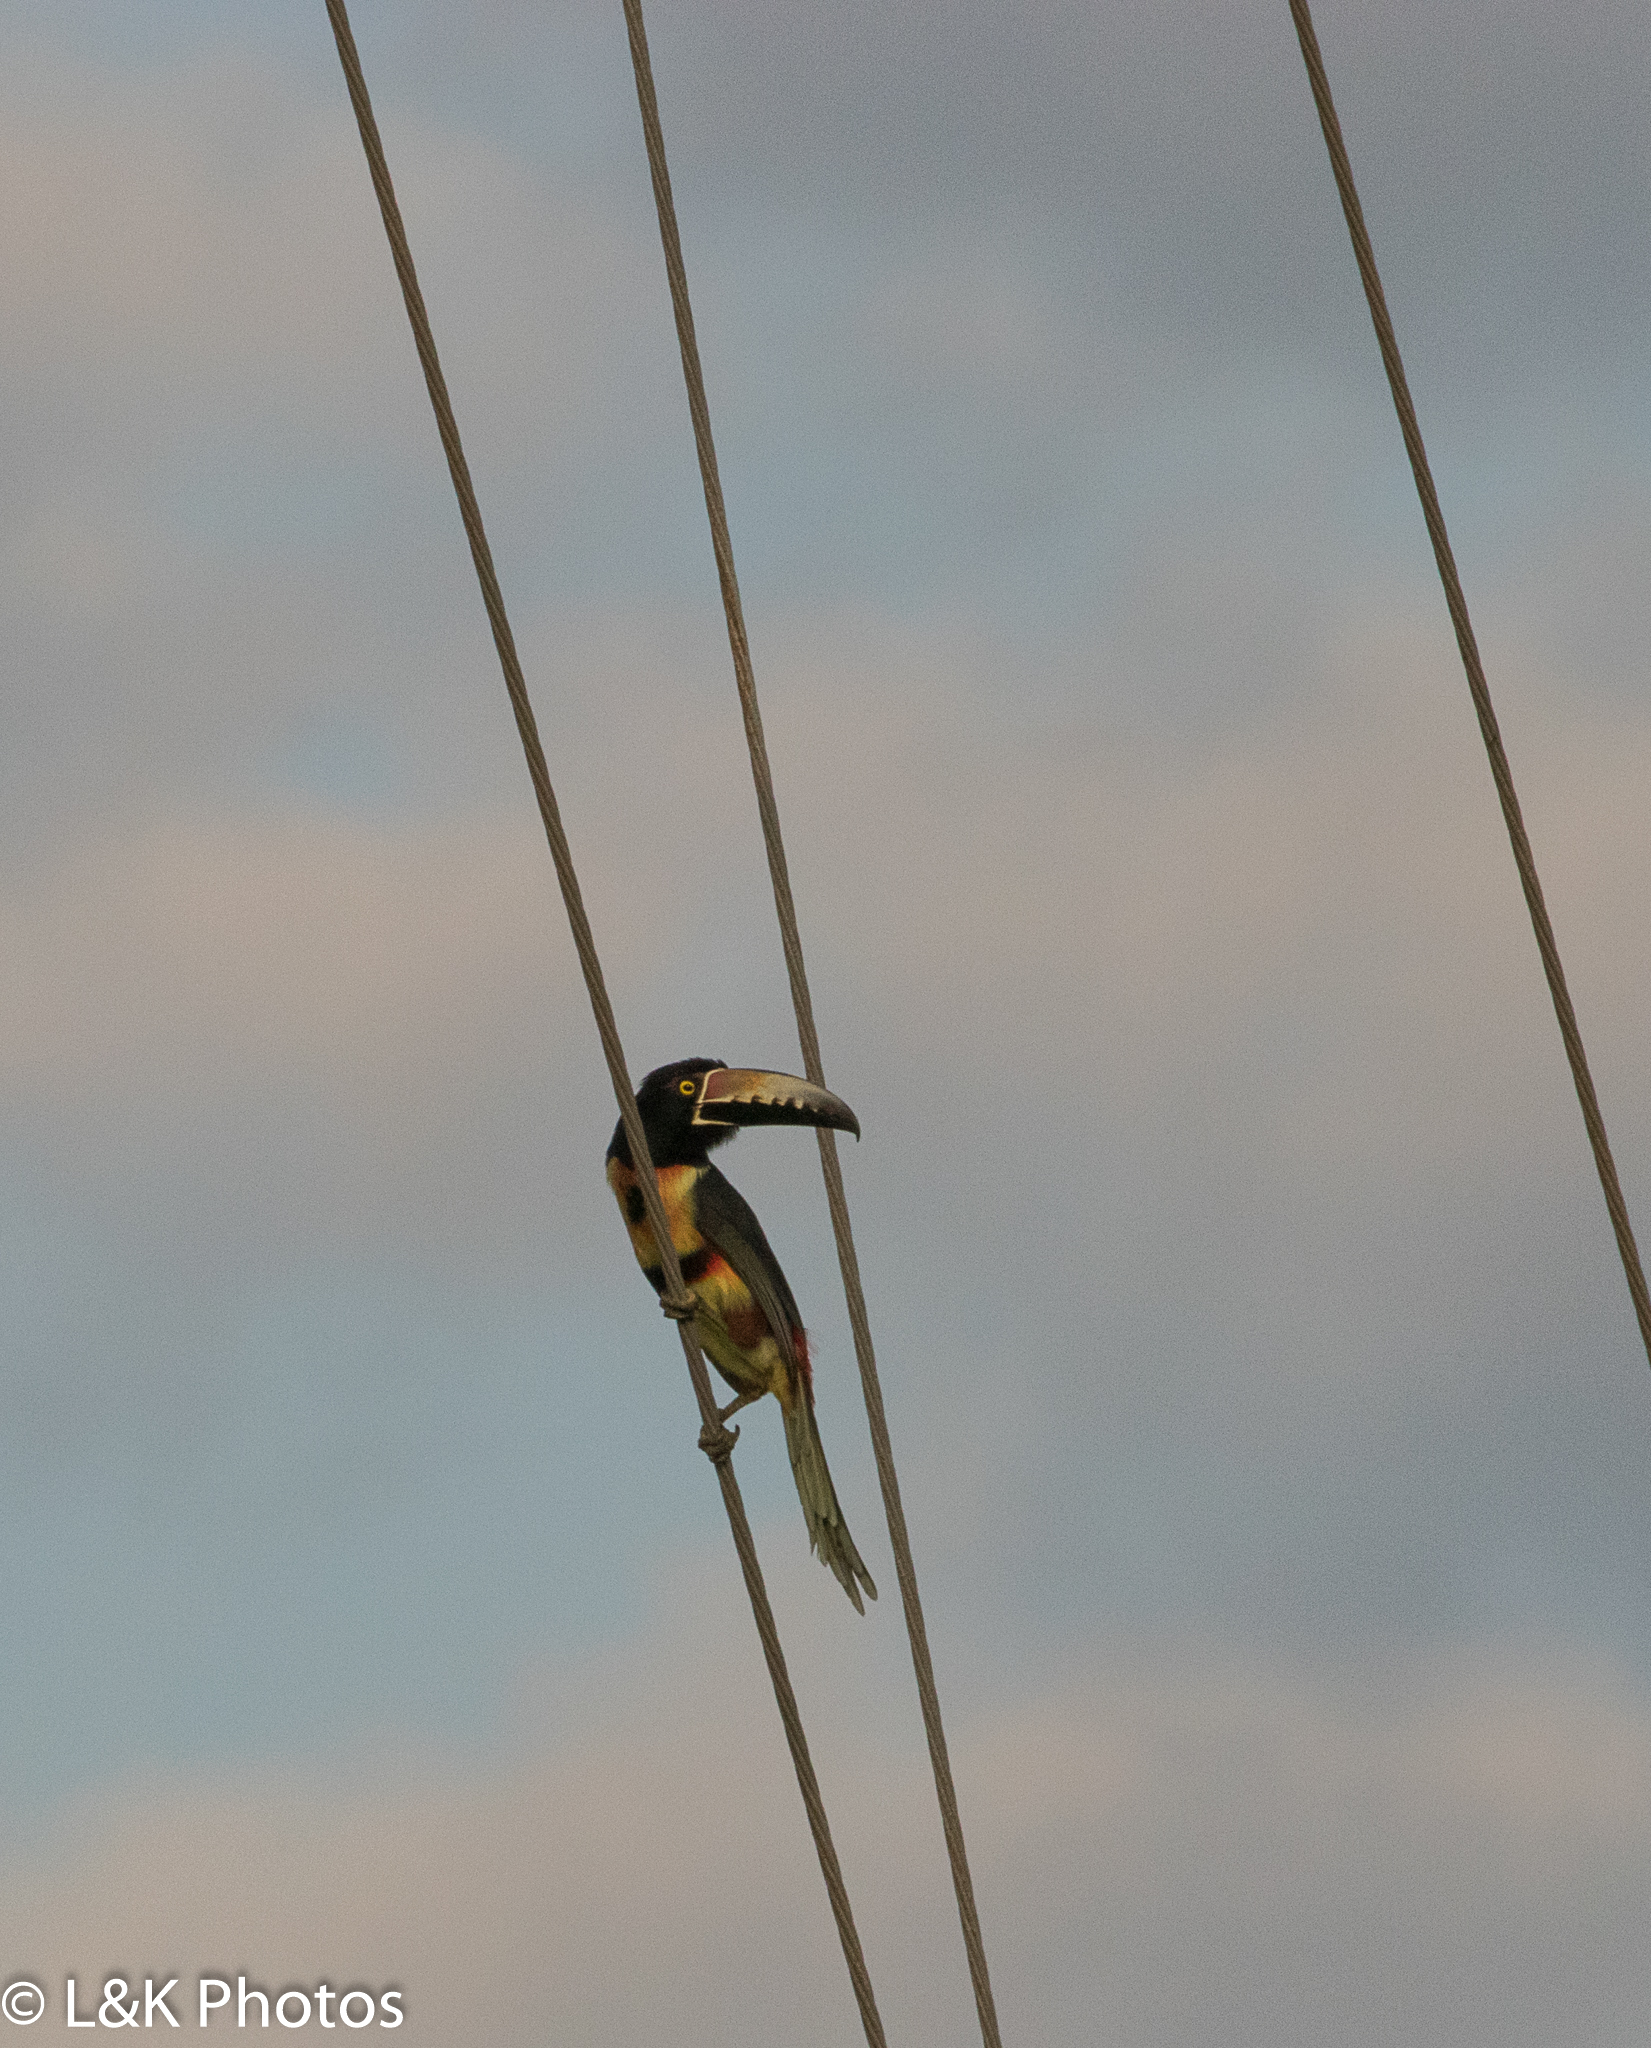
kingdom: Animalia
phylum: Chordata
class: Aves
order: Piciformes
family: Ramphastidae
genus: Pteroglossus
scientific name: Pteroglossus torquatus
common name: Collared aracari
